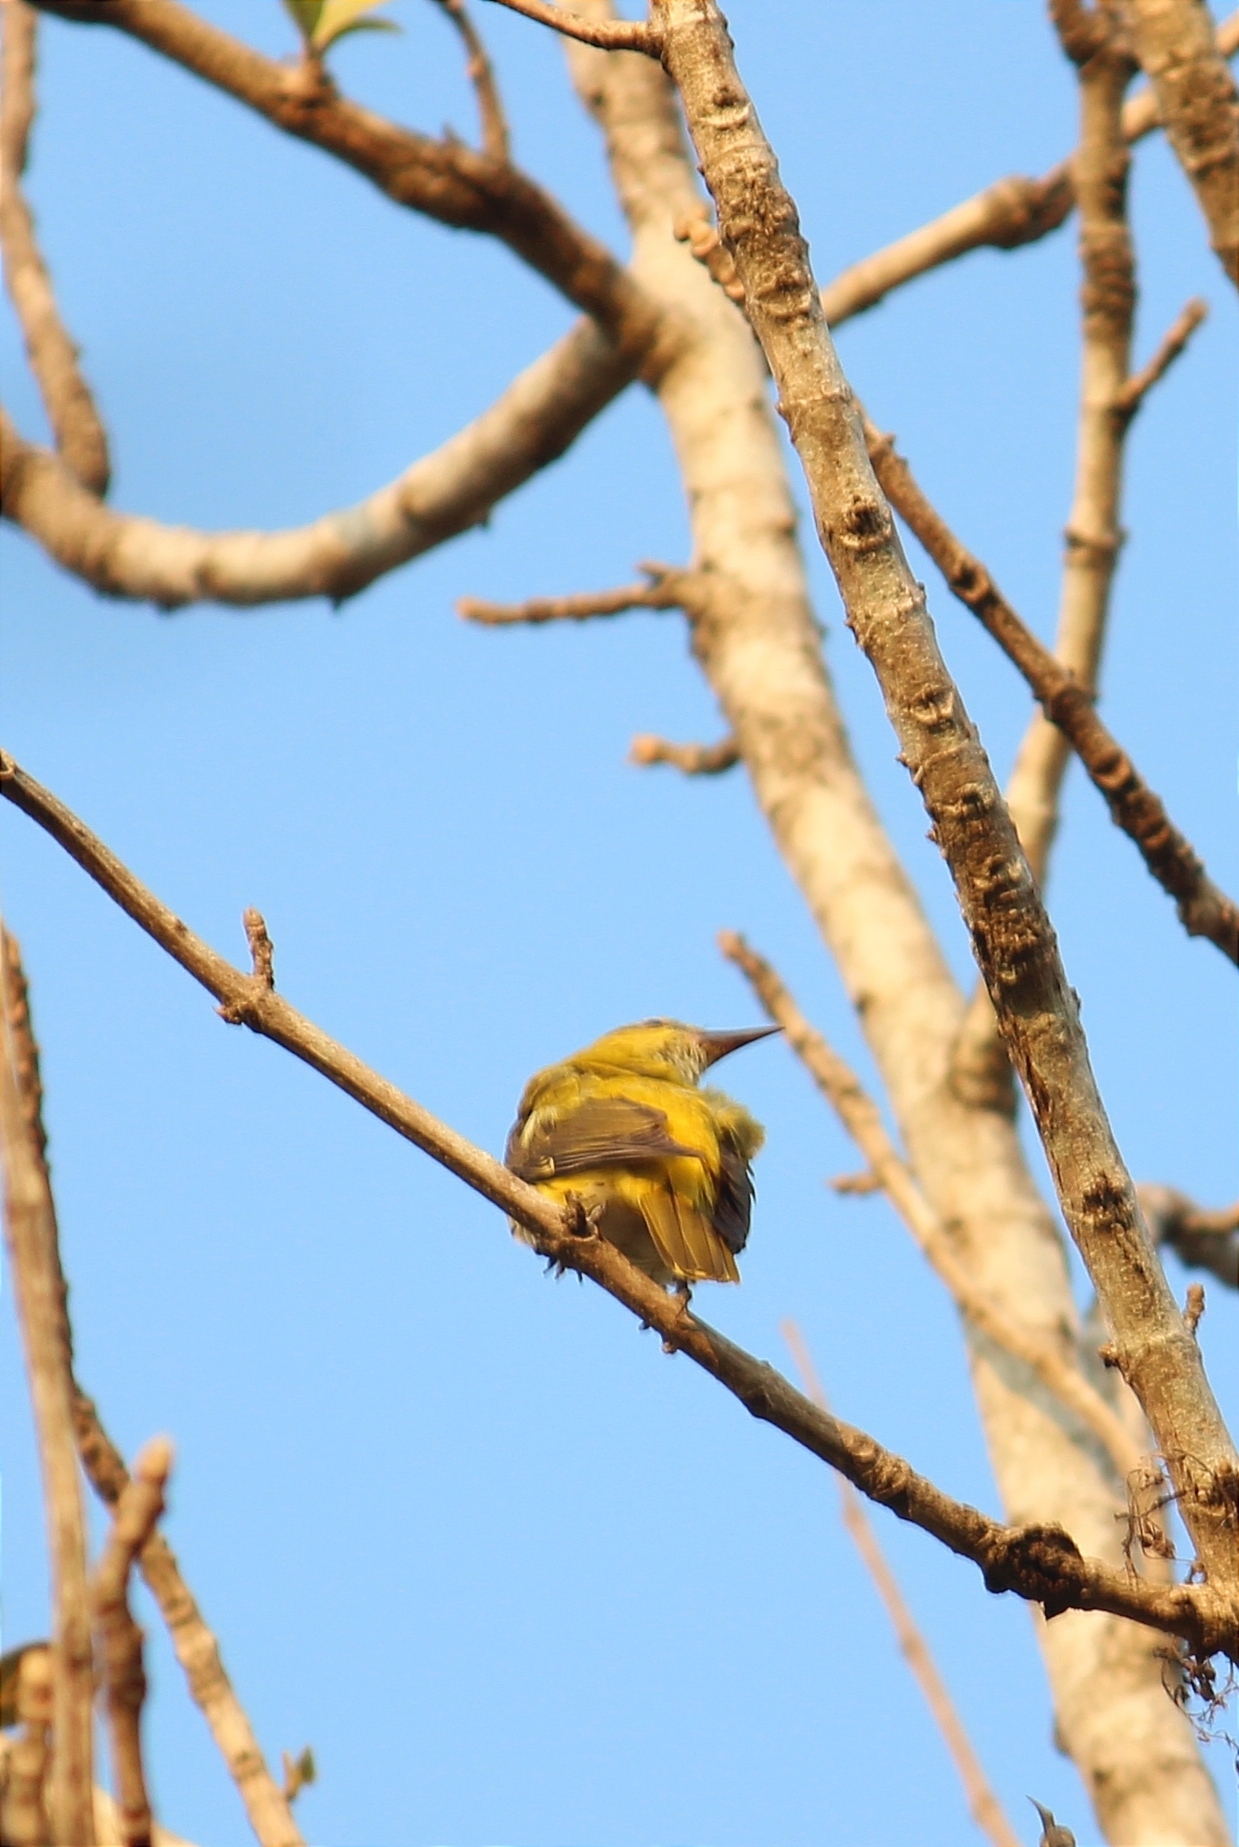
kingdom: Animalia
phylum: Chordata
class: Aves
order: Passeriformes
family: Oriolidae
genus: Oriolus
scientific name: Oriolus kundoo
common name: Indian golden oriole
